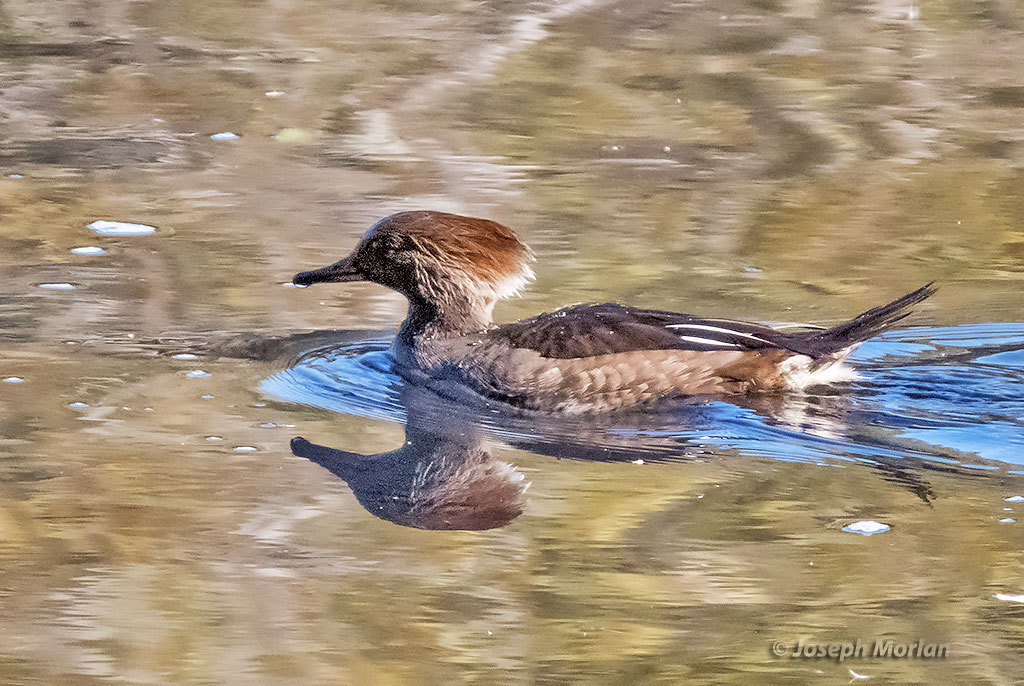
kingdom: Animalia
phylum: Chordata
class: Aves
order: Anseriformes
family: Anatidae
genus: Lophodytes
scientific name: Lophodytes cucullatus
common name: Hooded merganser
